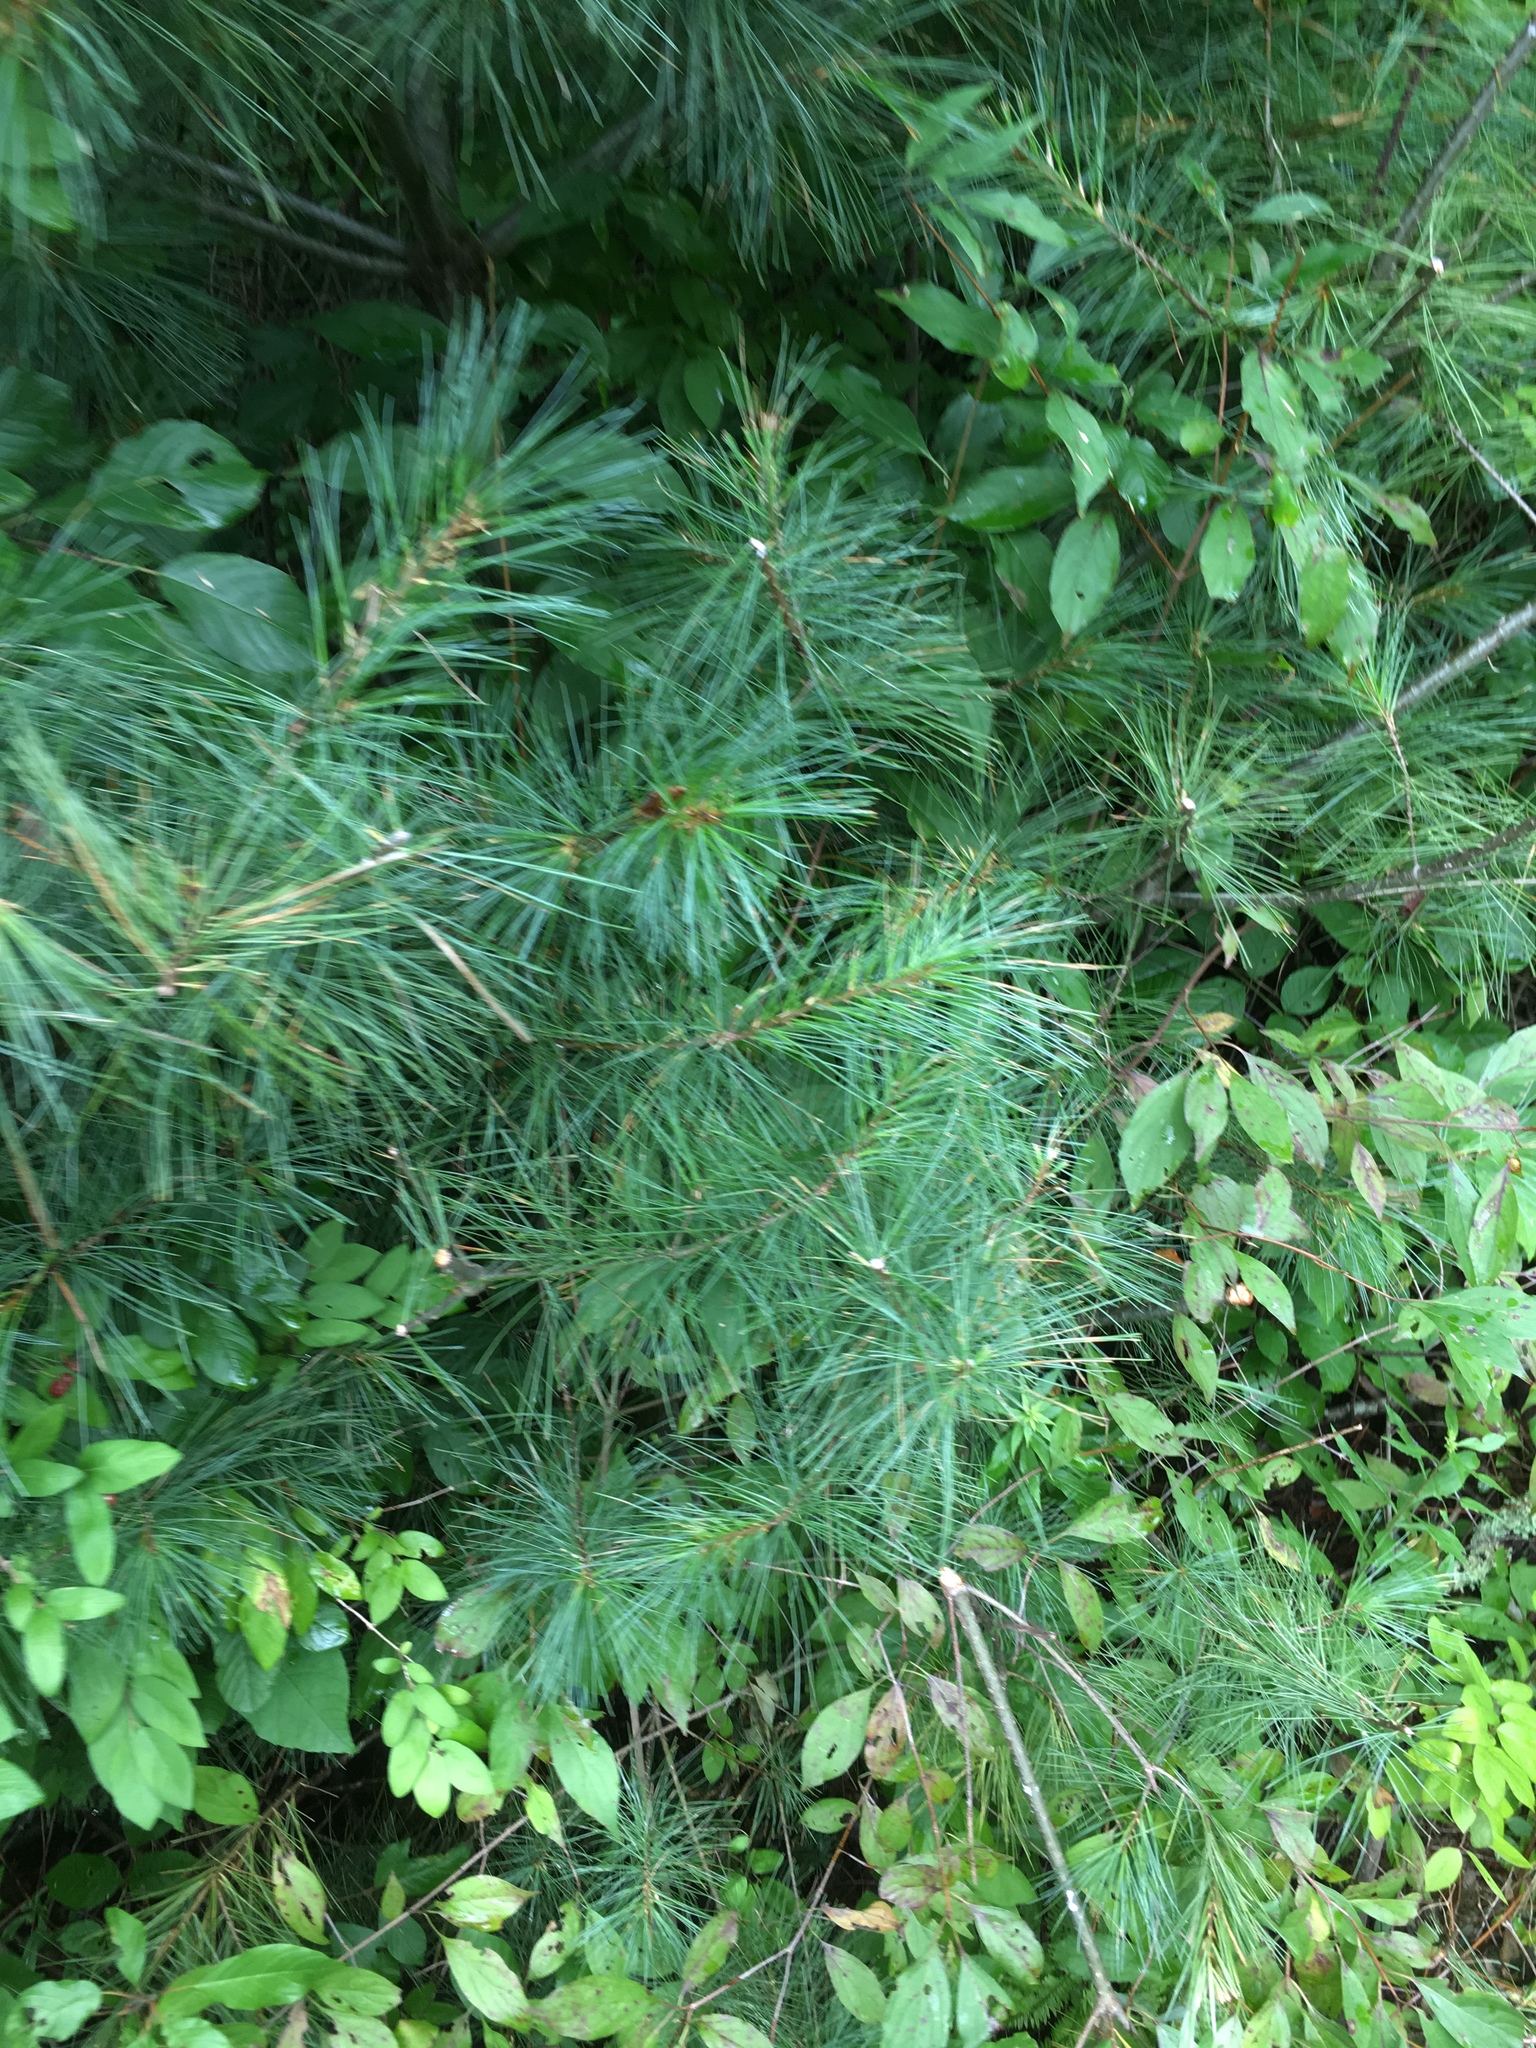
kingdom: Plantae
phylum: Tracheophyta
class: Pinopsida
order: Pinales
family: Pinaceae
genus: Pinus
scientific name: Pinus strobus
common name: Weymouth pine
